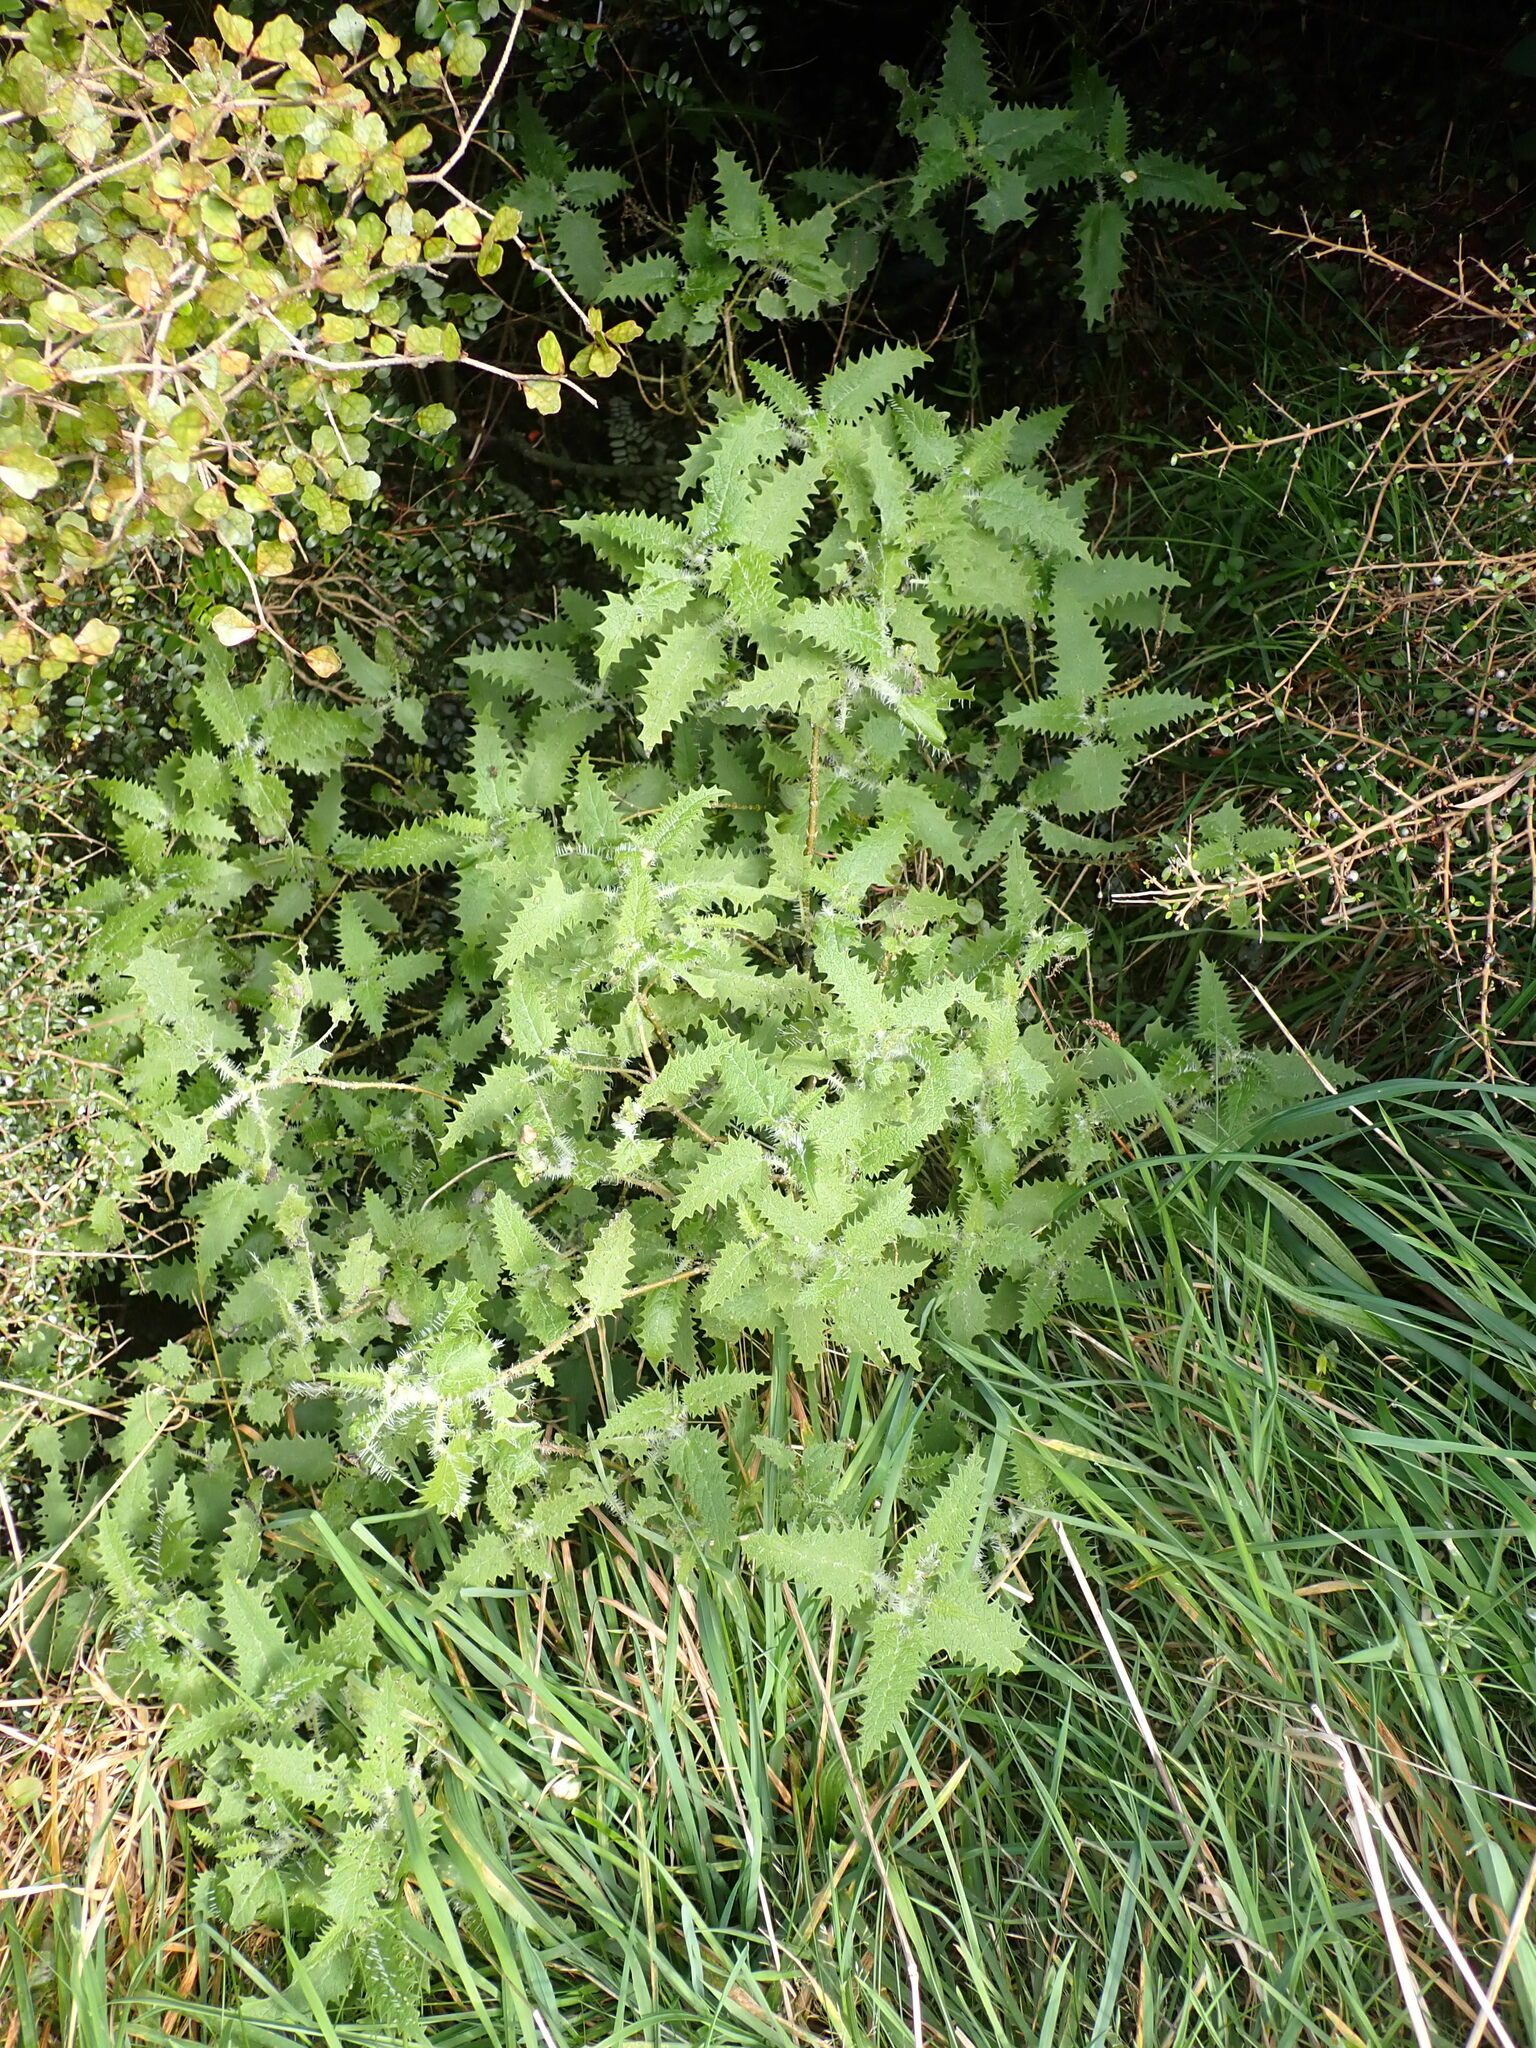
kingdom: Plantae
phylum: Tracheophyta
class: Magnoliopsida
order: Rosales
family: Urticaceae
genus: Urtica
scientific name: Urtica ferox
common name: Tree nettle
